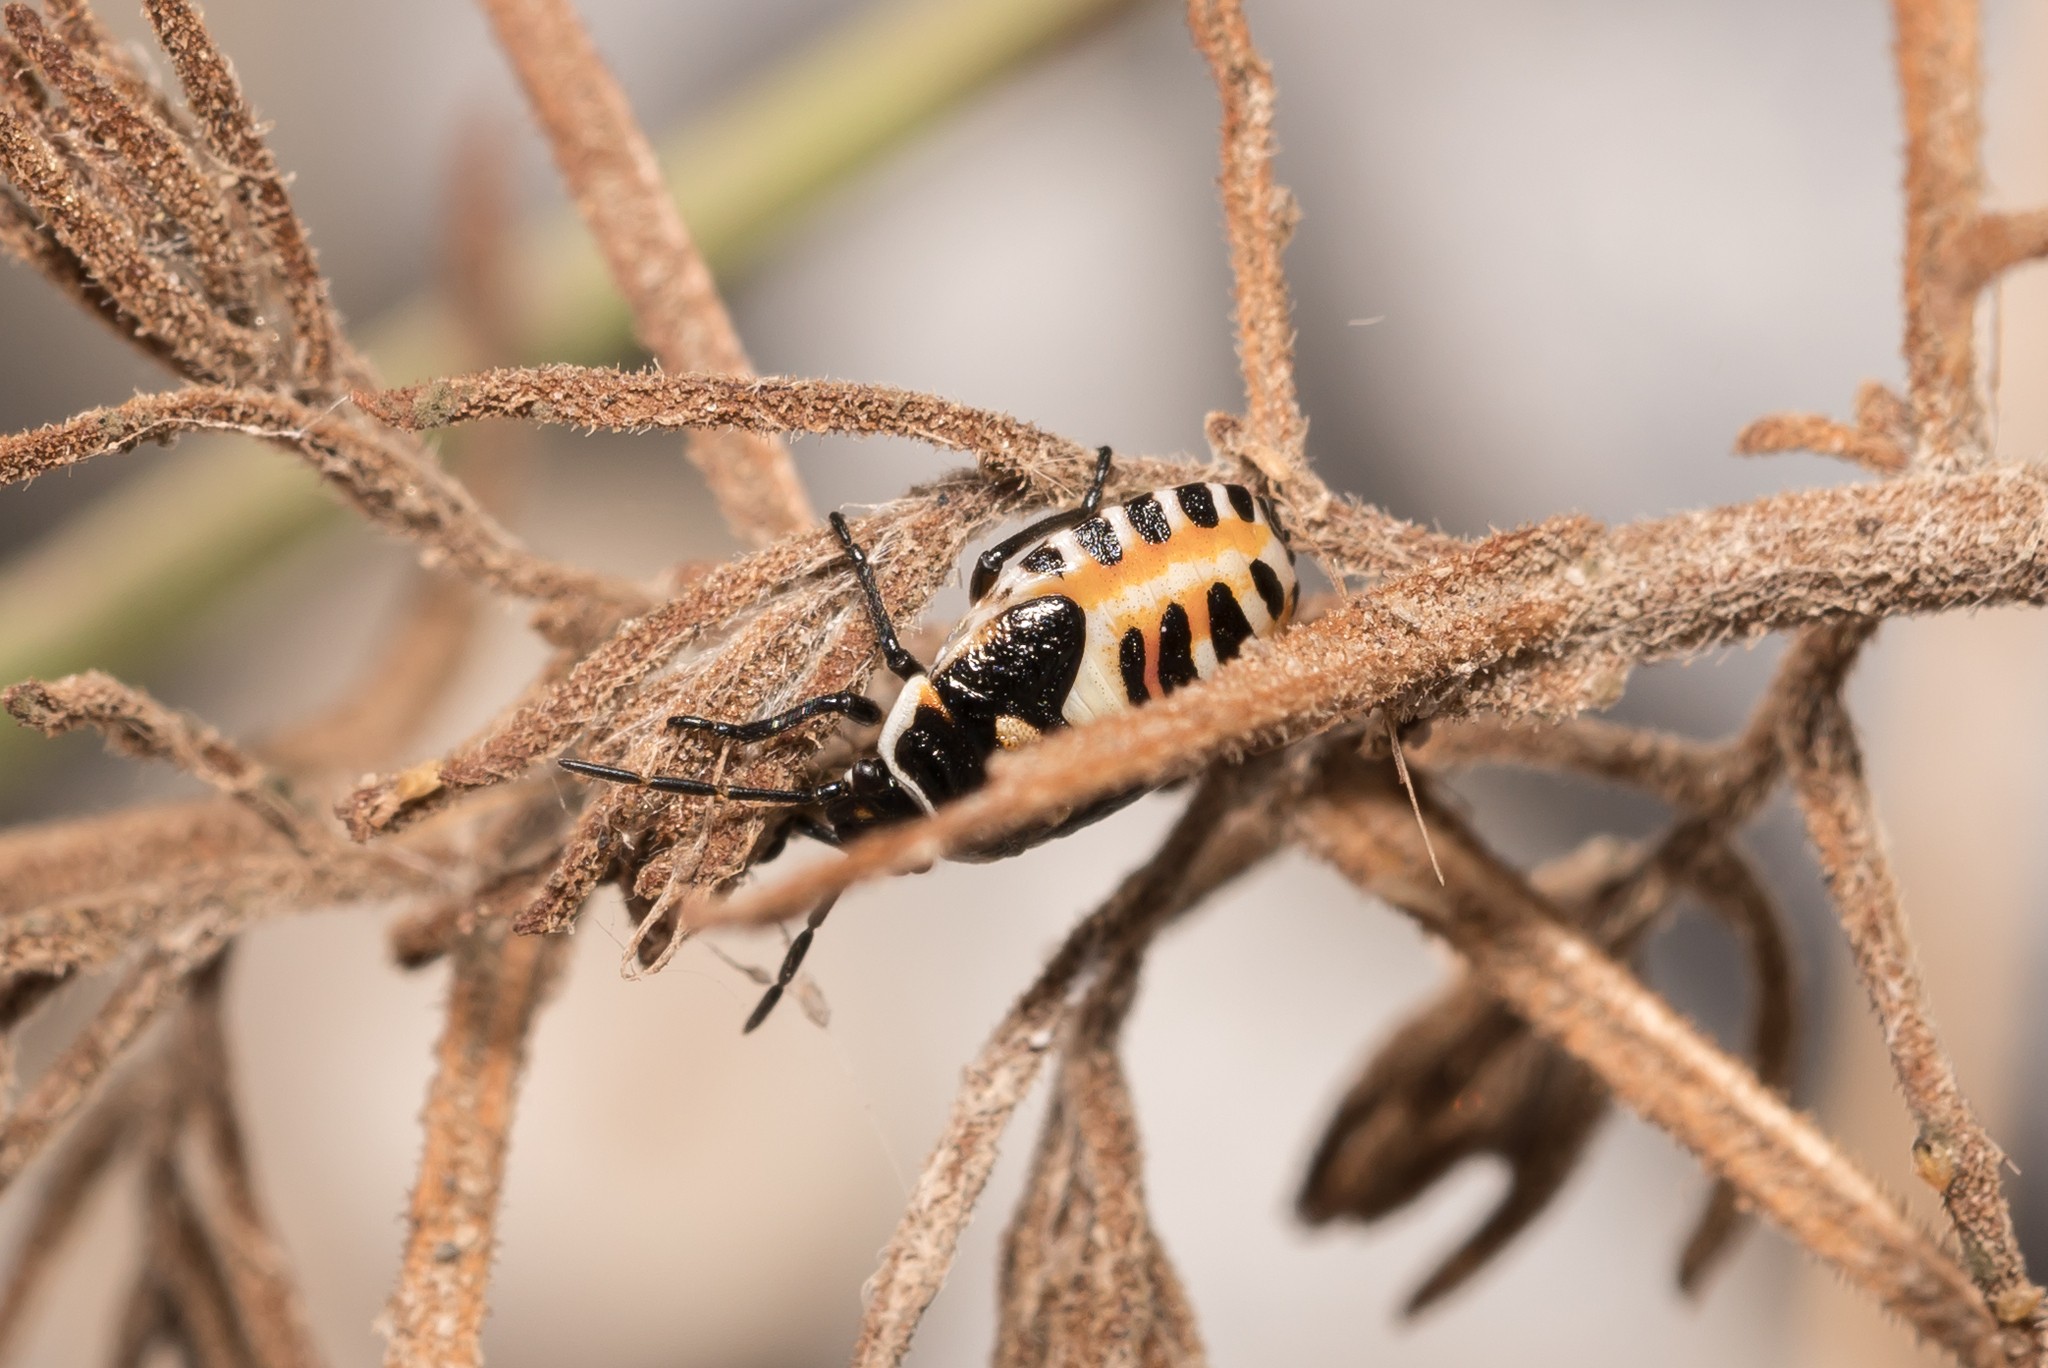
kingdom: Animalia
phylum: Arthropoda
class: Insecta
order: Hemiptera
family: Pentatomidae
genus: Eurydema
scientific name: Eurydema ornata
